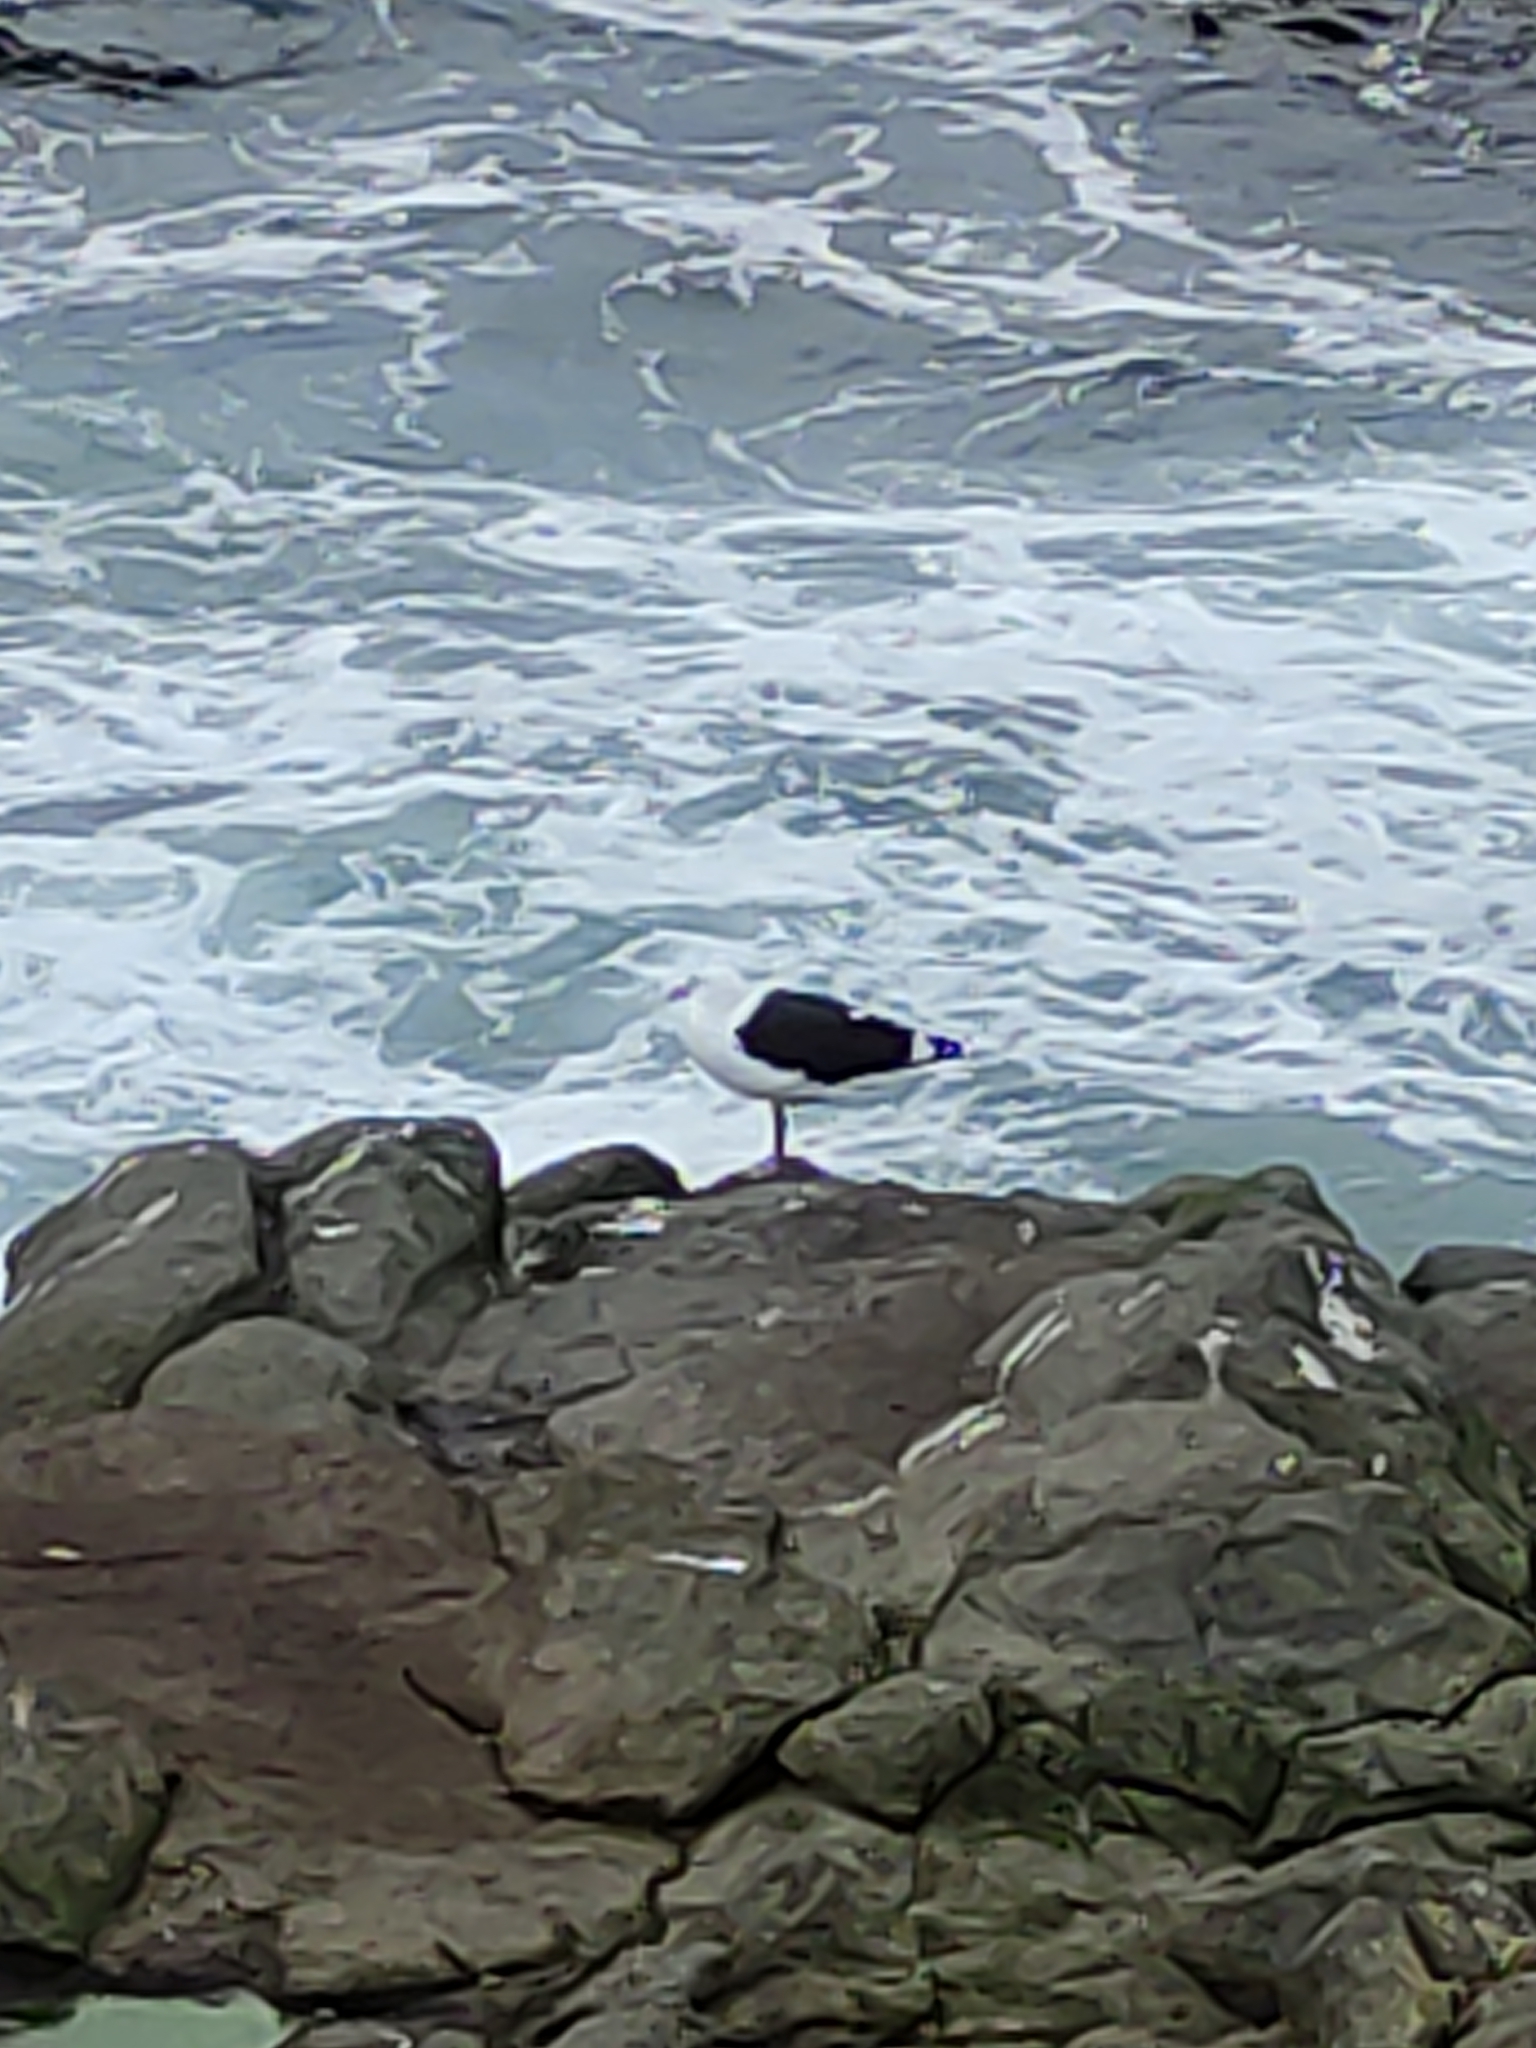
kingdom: Animalia
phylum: Chordata
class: Aves
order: Charadriiformes
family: Laridae
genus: Larus
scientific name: Larus dominicanus
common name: Kelp gull
